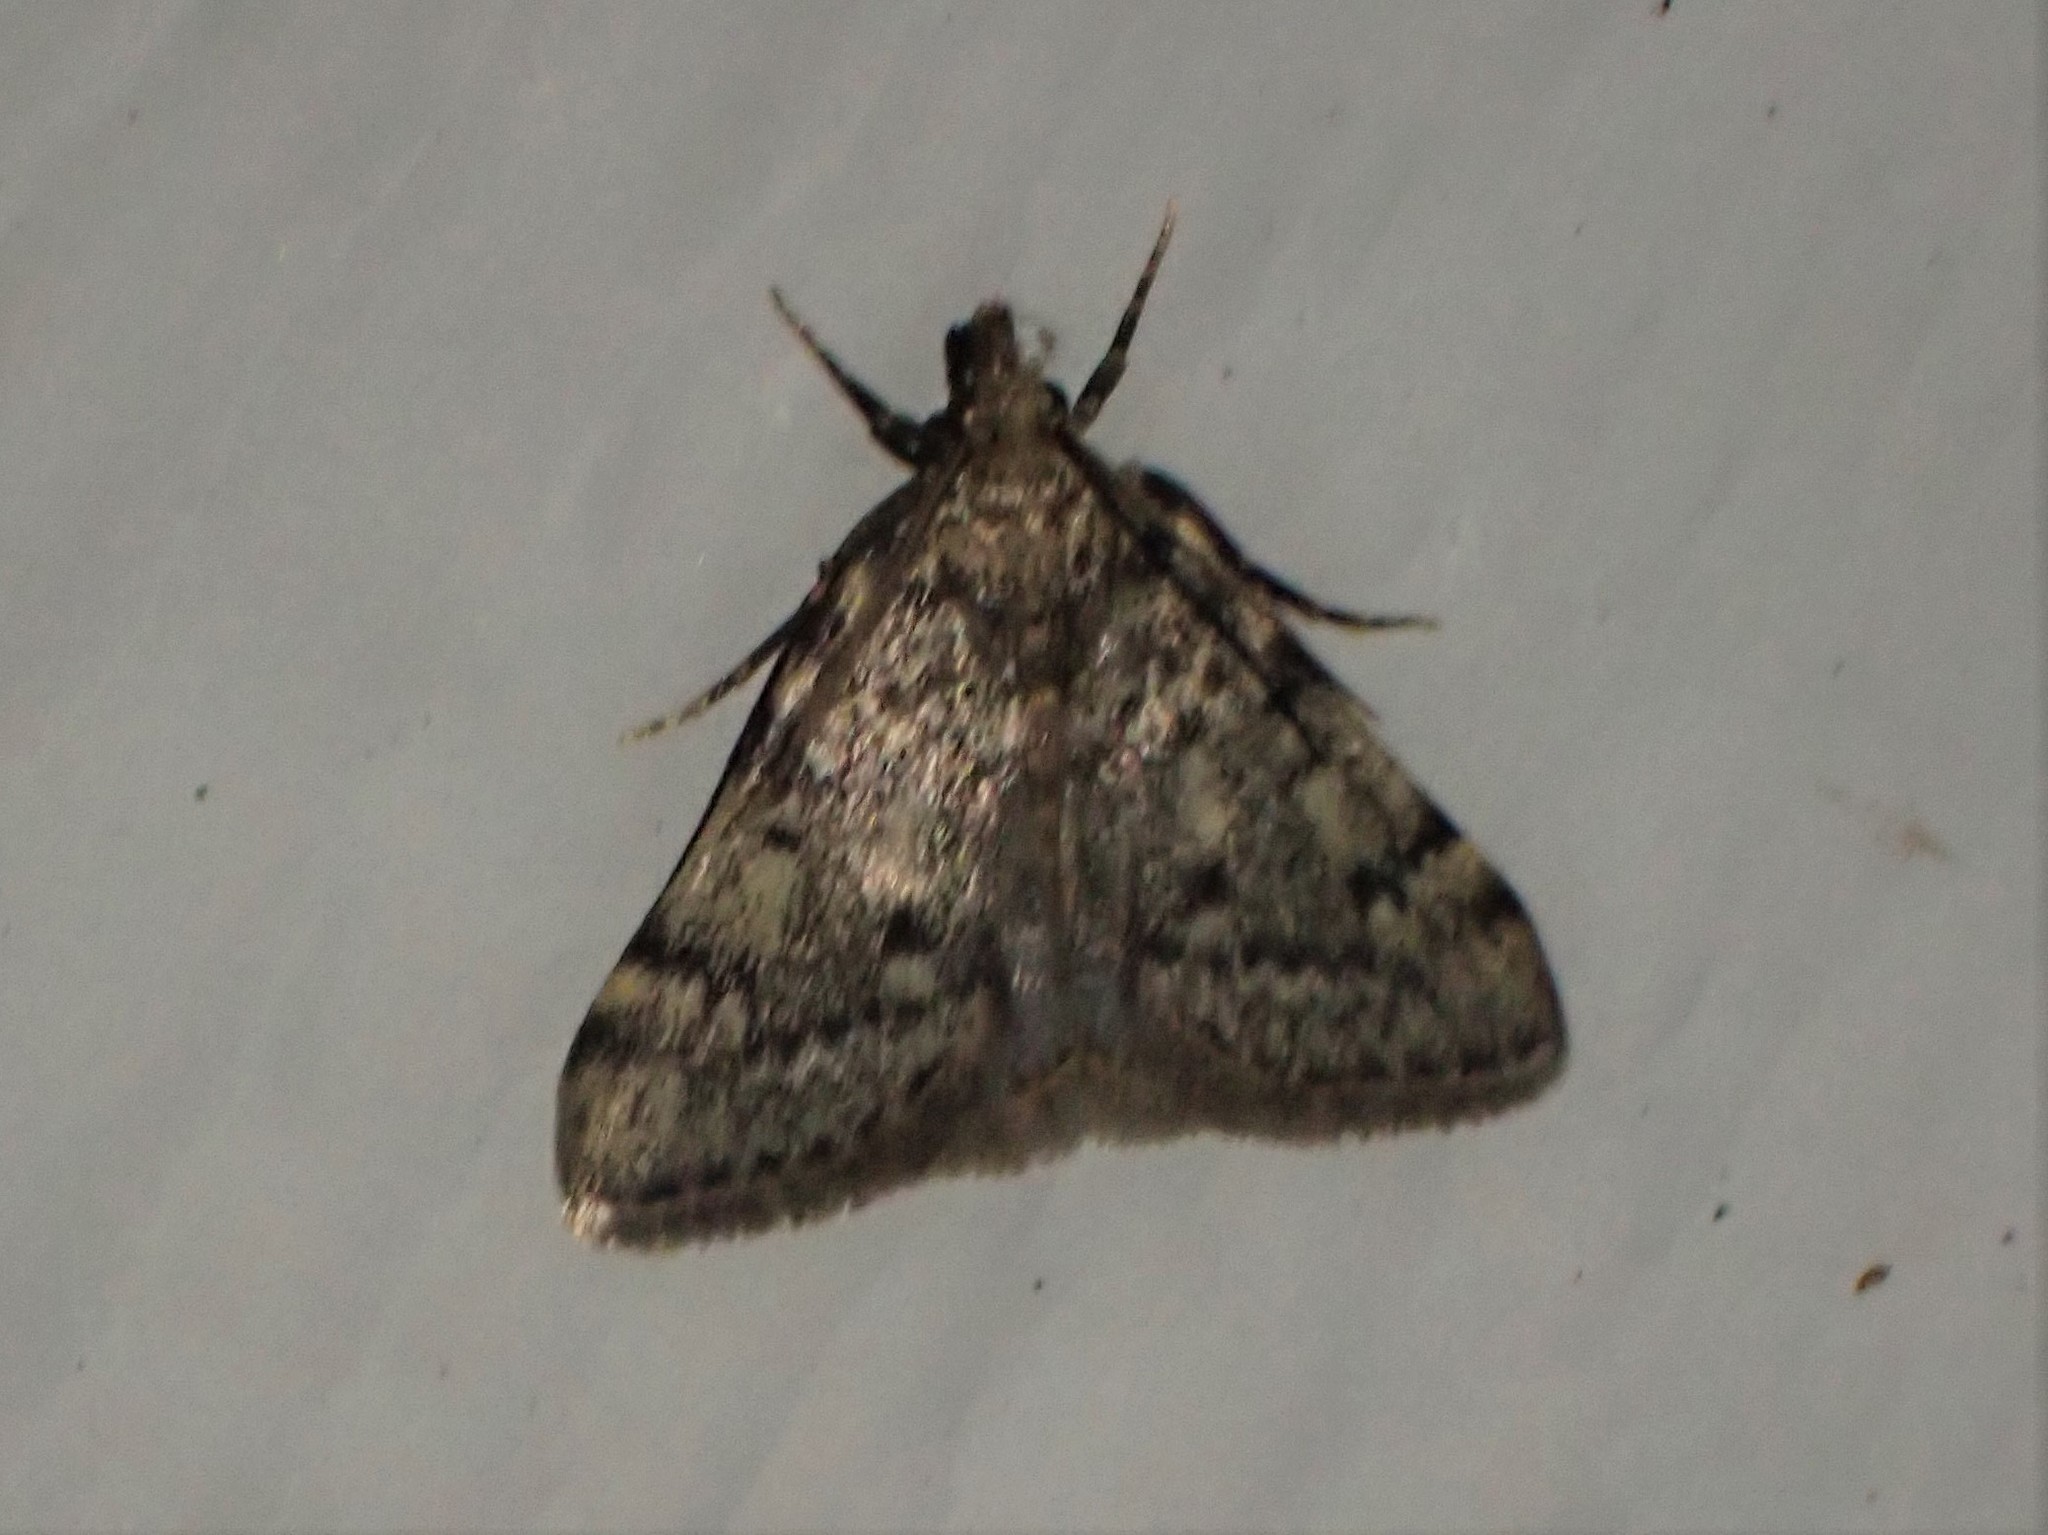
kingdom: Animalia
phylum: Arthropoda
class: Insecta
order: Lepidoptera
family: Pyralidae
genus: Aglossa
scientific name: Aglossa pinguinalis
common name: Large tabby
